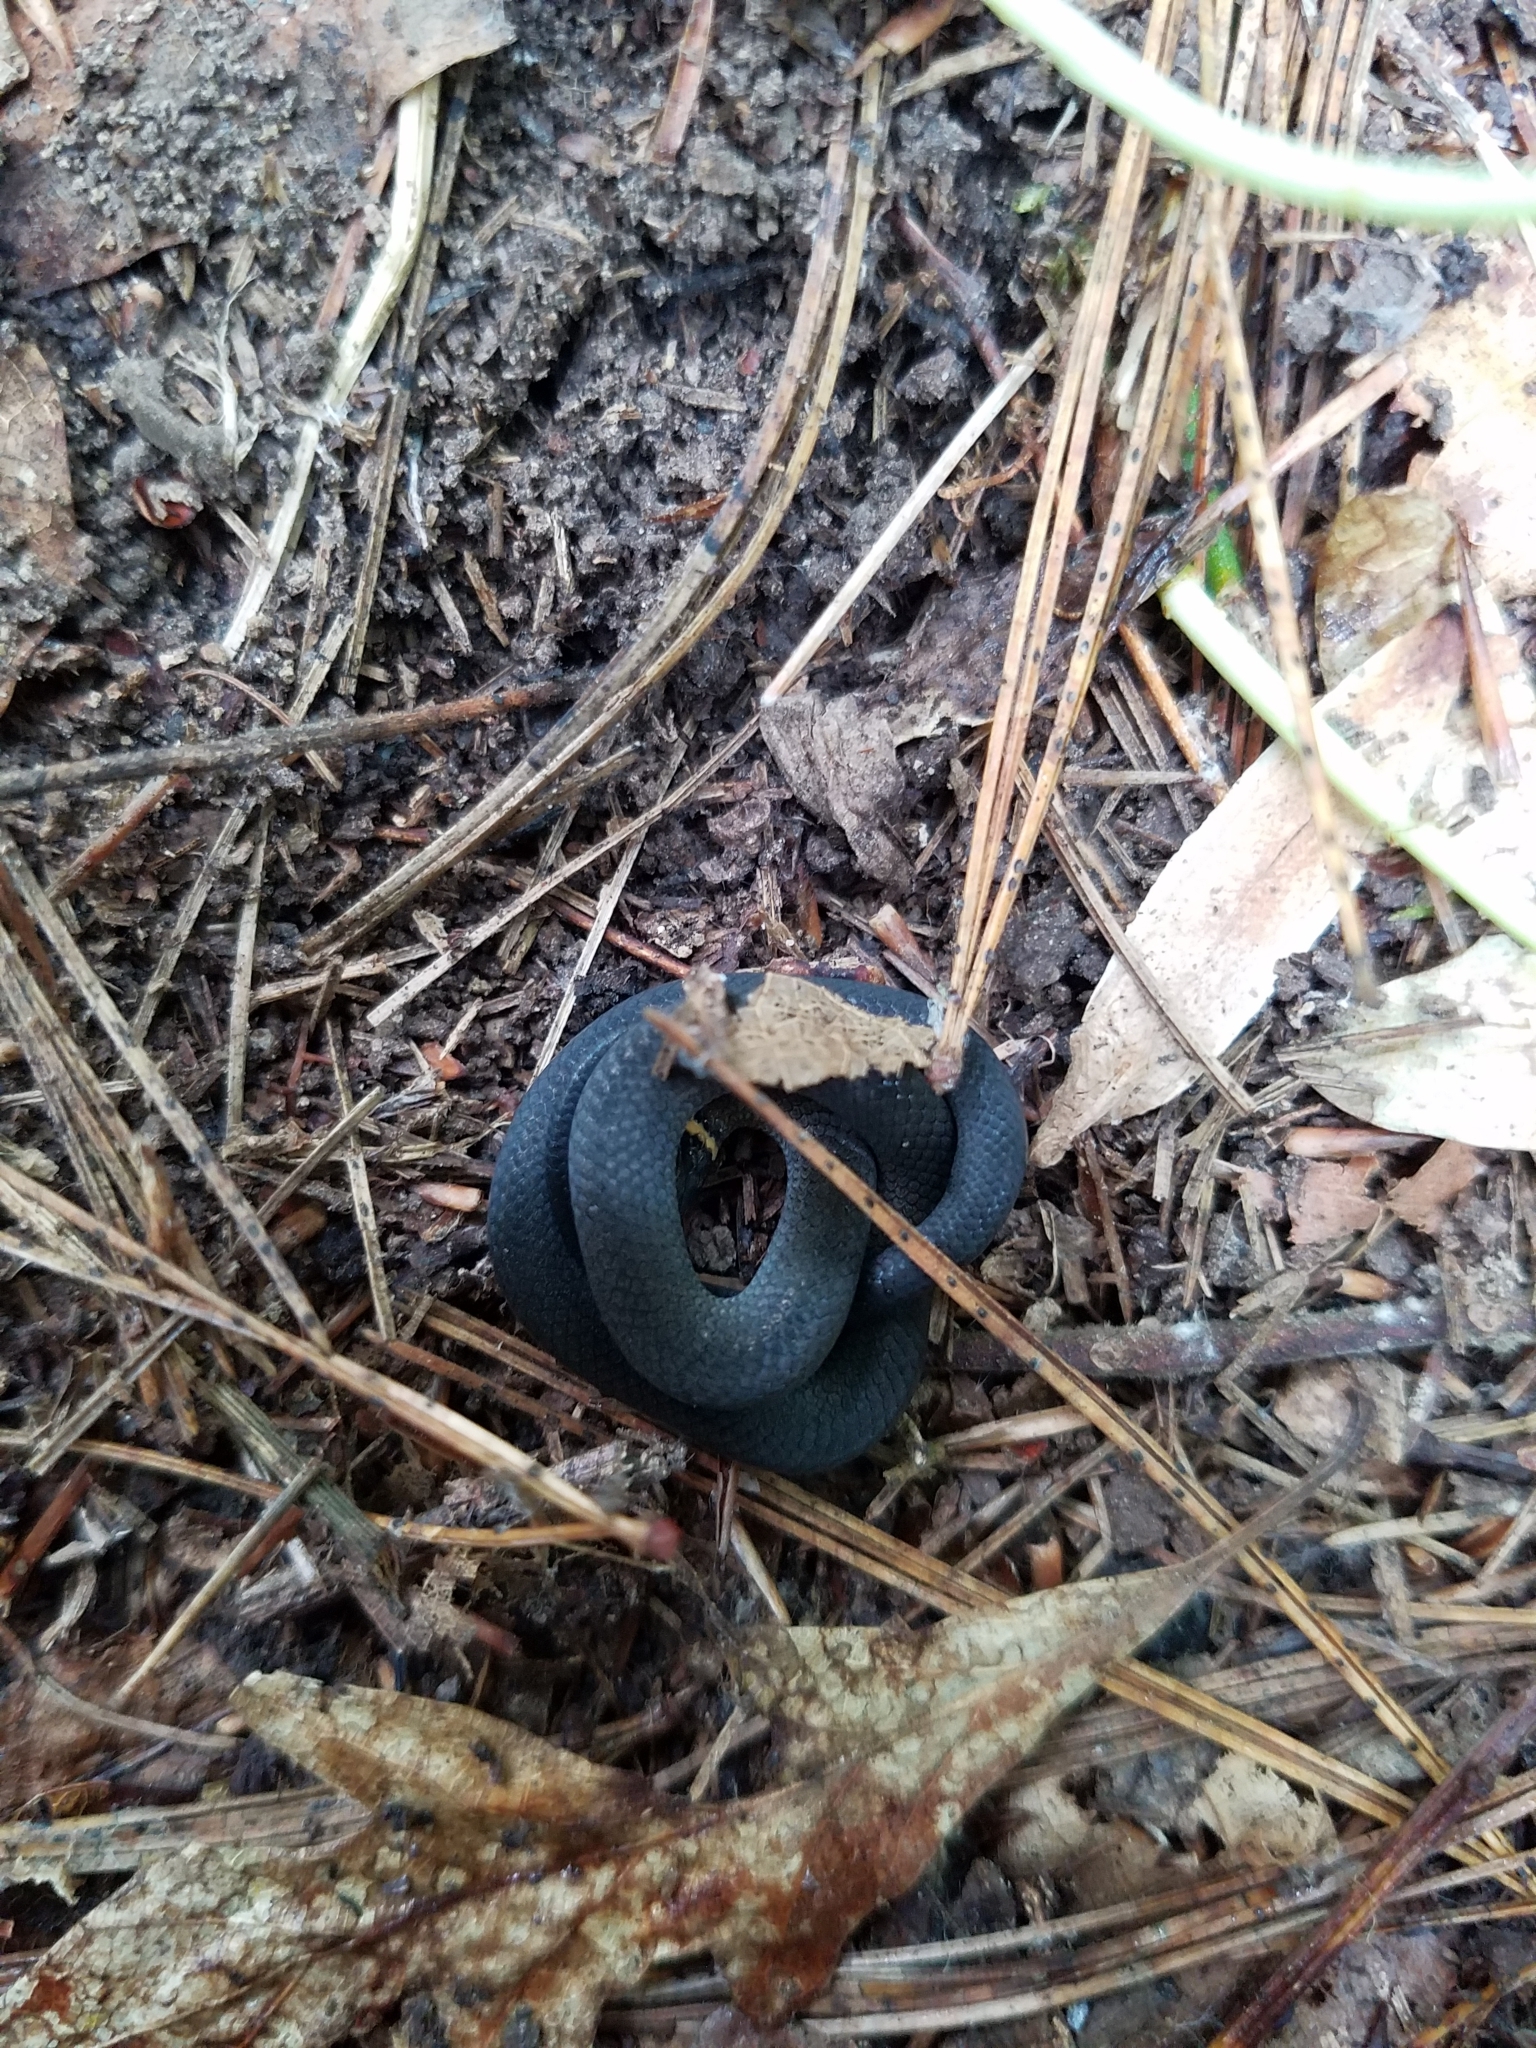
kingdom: Animalia
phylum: Chordata
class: Squamata
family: Colubridae
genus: Diadophis
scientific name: Diadophis punctatus
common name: Ringneck snake
